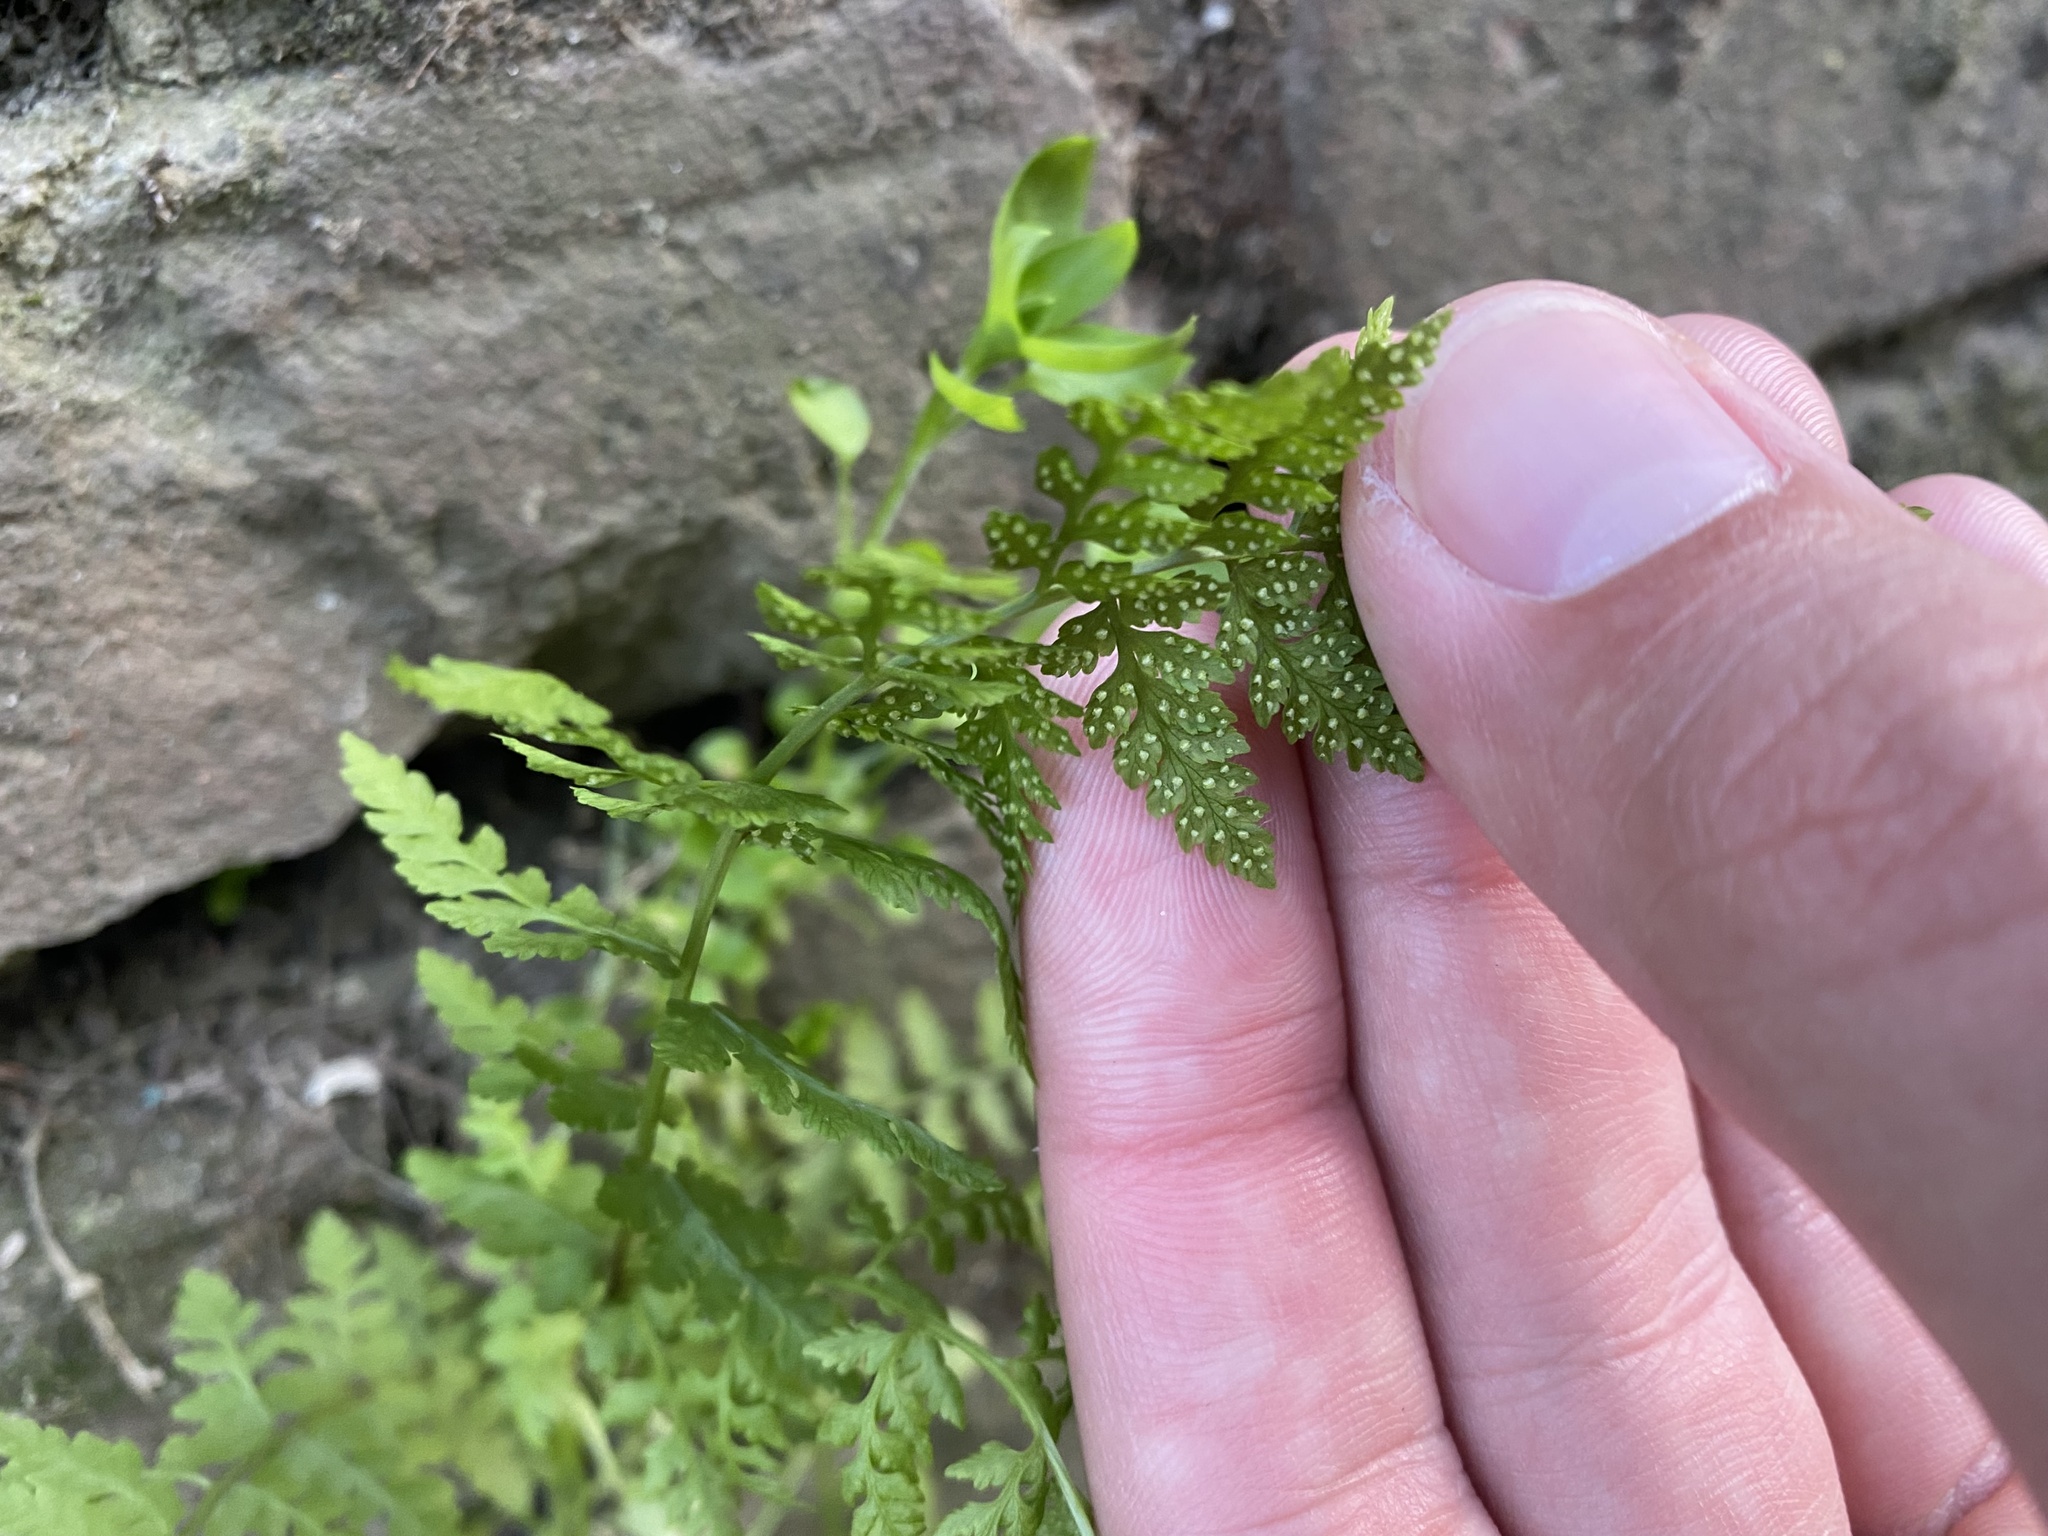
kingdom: Plantae
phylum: Tracheophyta
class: Polypodiopsida
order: Polypodiales
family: Cystopteridaceae
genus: Cystopteris
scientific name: Cystopteris fragilis
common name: Brittle bladder fern
